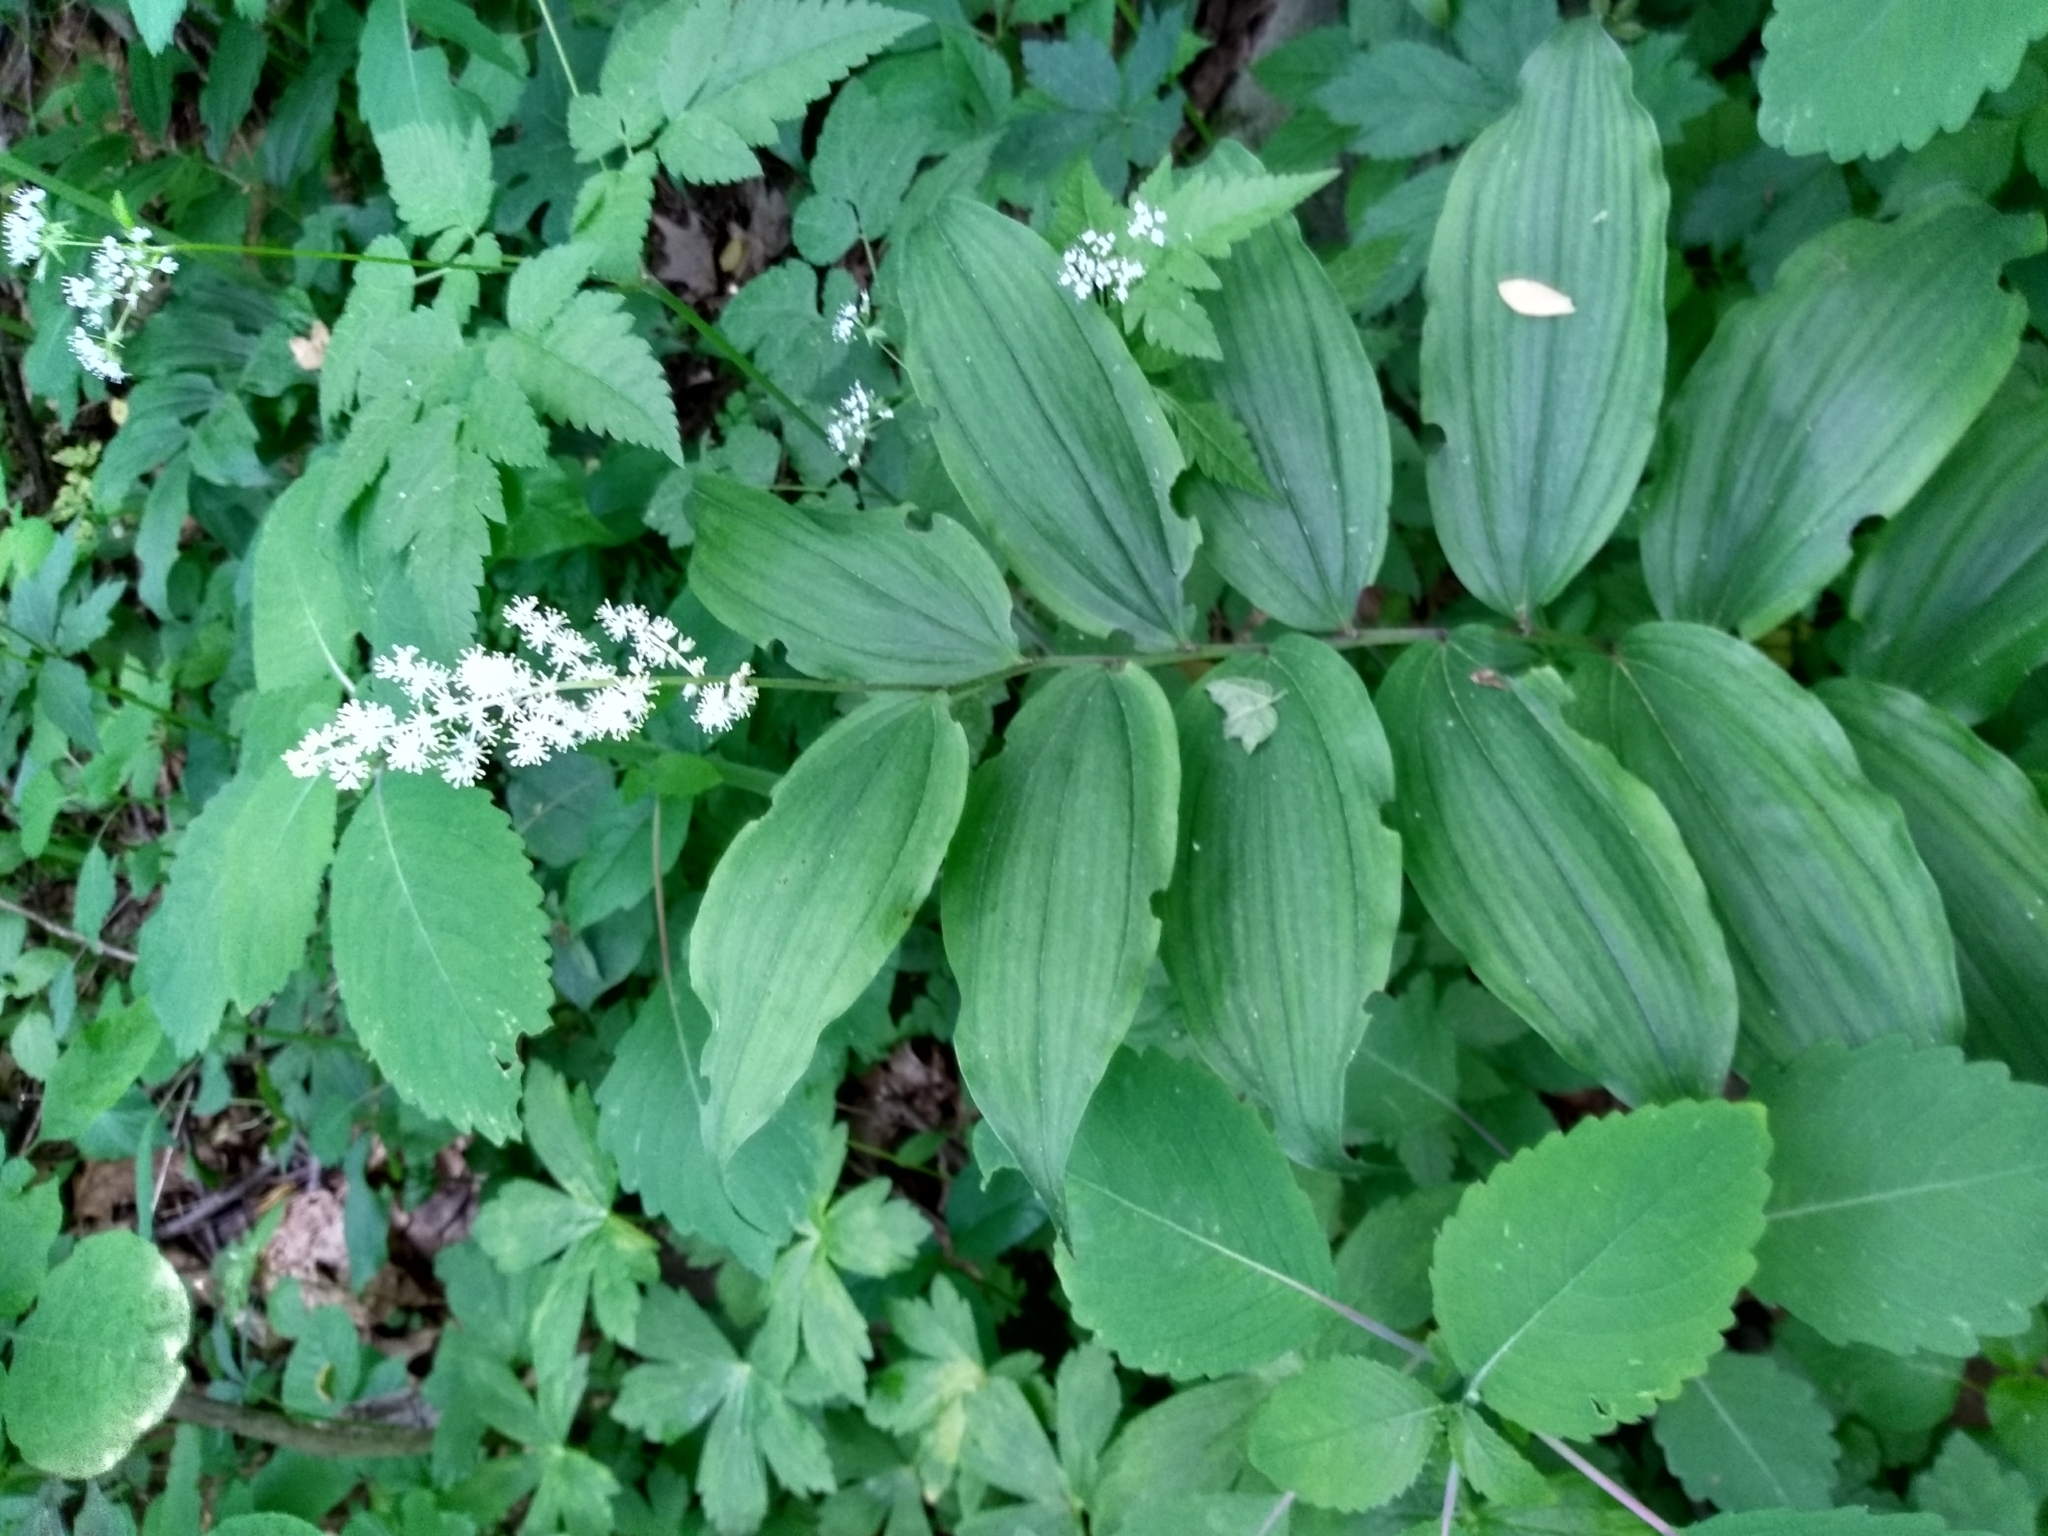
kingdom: Plantae
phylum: Tracheophyta
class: Liliopsida
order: Asparagales
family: Asparagaceae
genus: Maianthemum
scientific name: Maianthemum racemosum
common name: False spikenard
